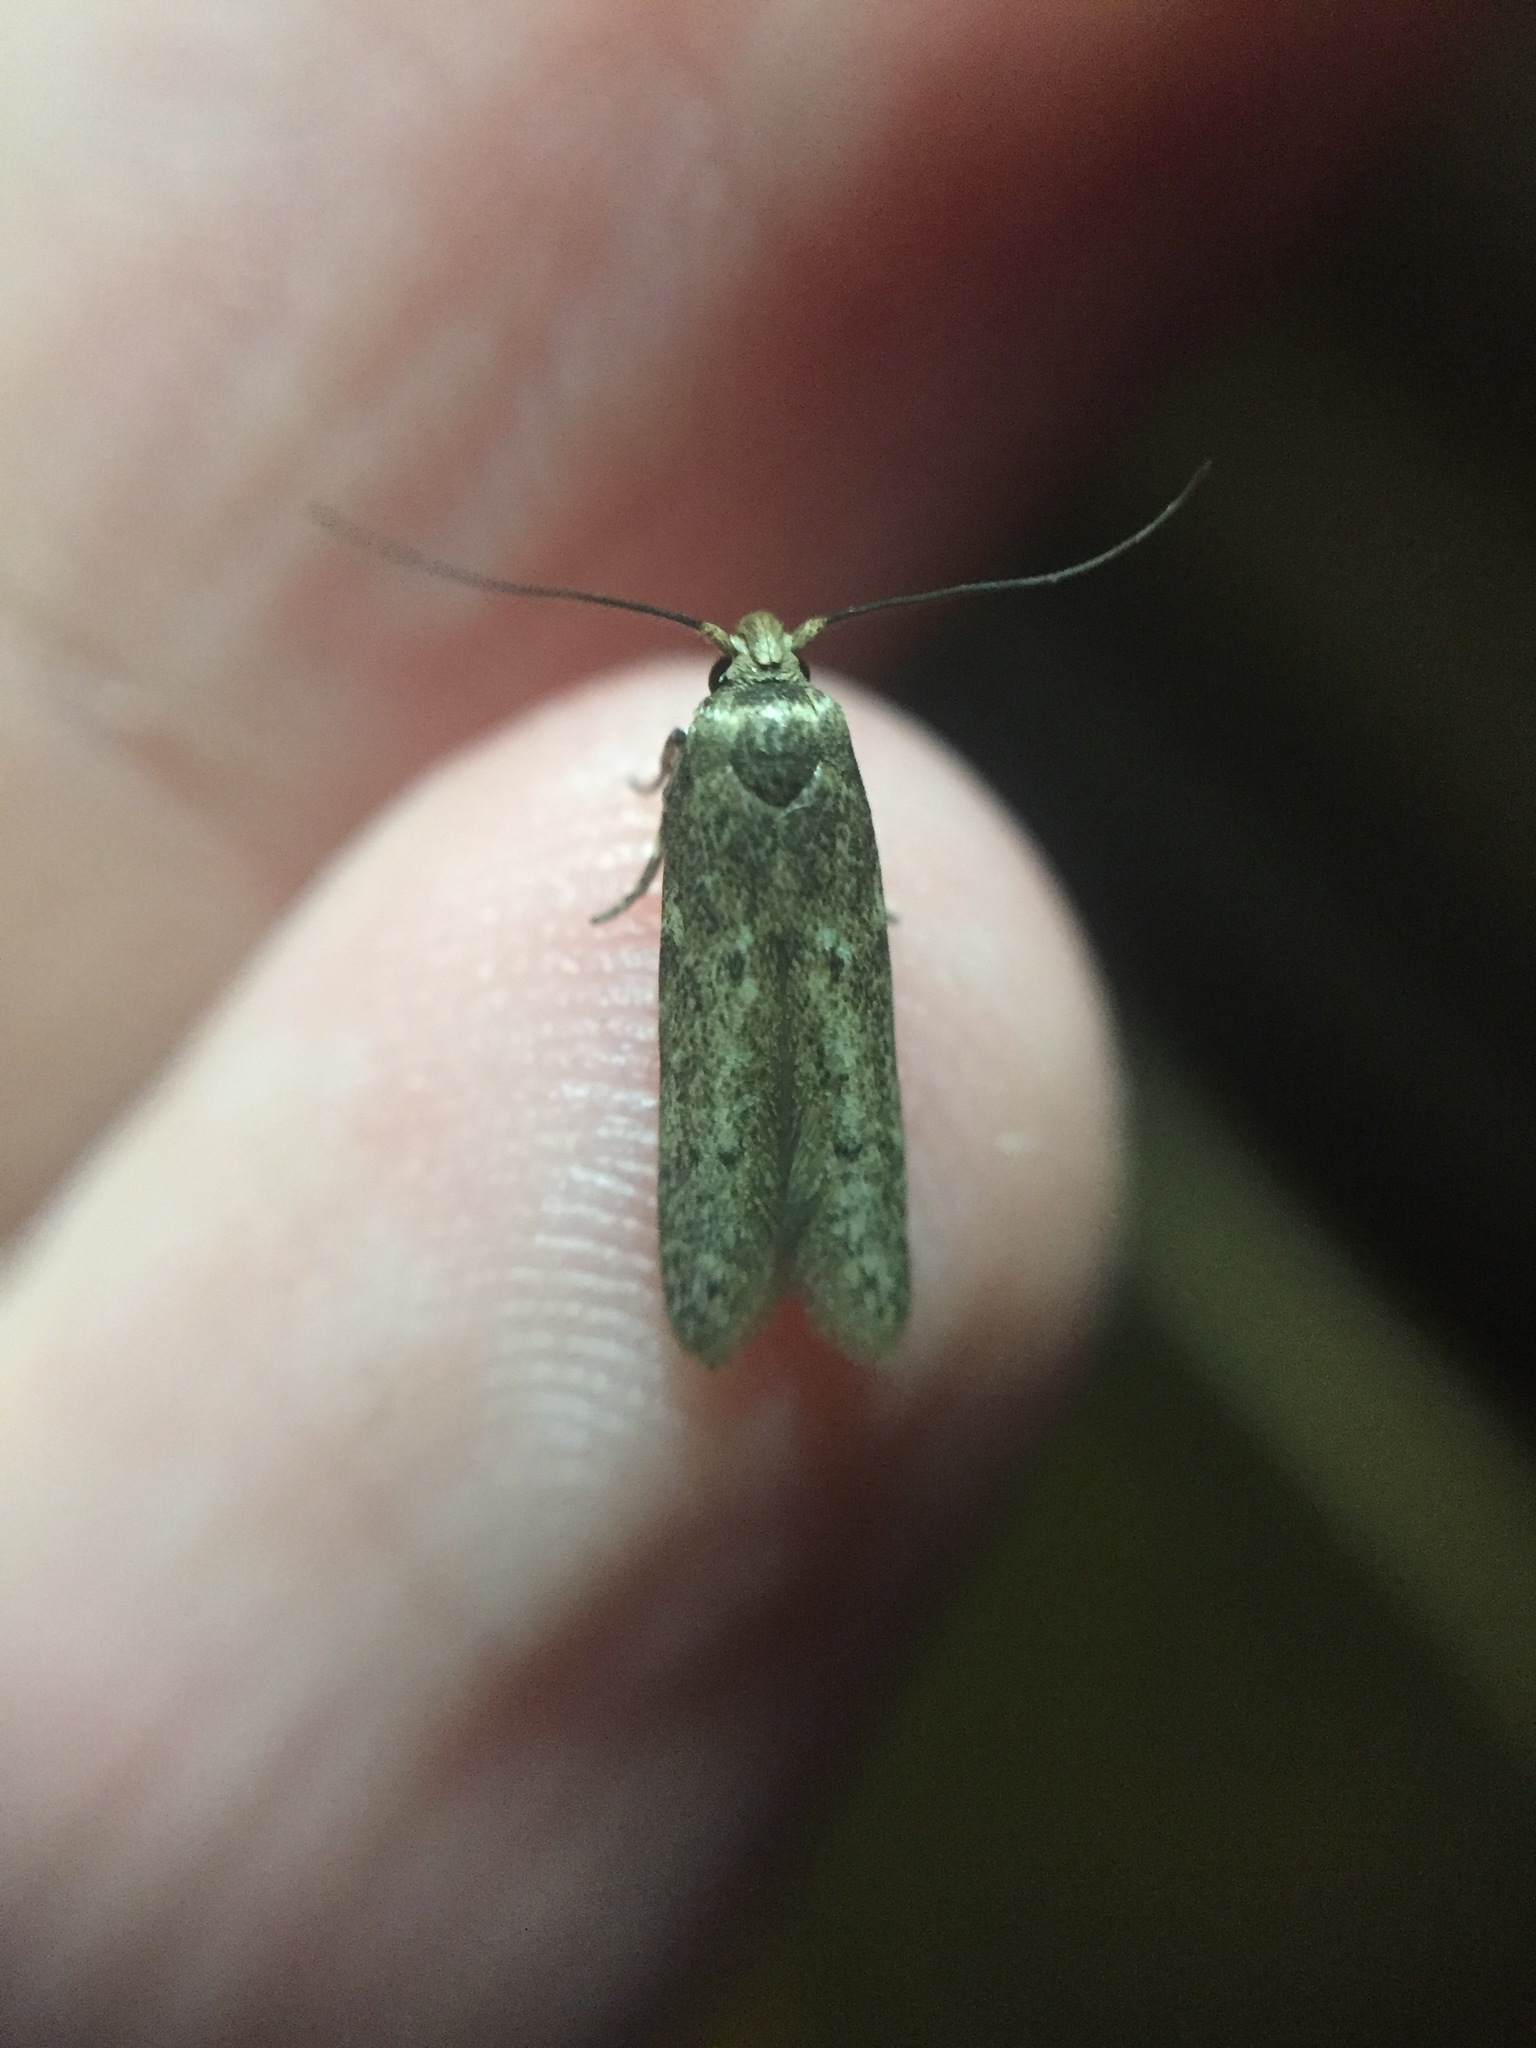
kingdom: Animalia
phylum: Arthropoda
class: Insecta
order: Lepidoptera
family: Blastobasidae
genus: Blastobasis
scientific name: Blastobasis tarda
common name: Blastobasid moth
